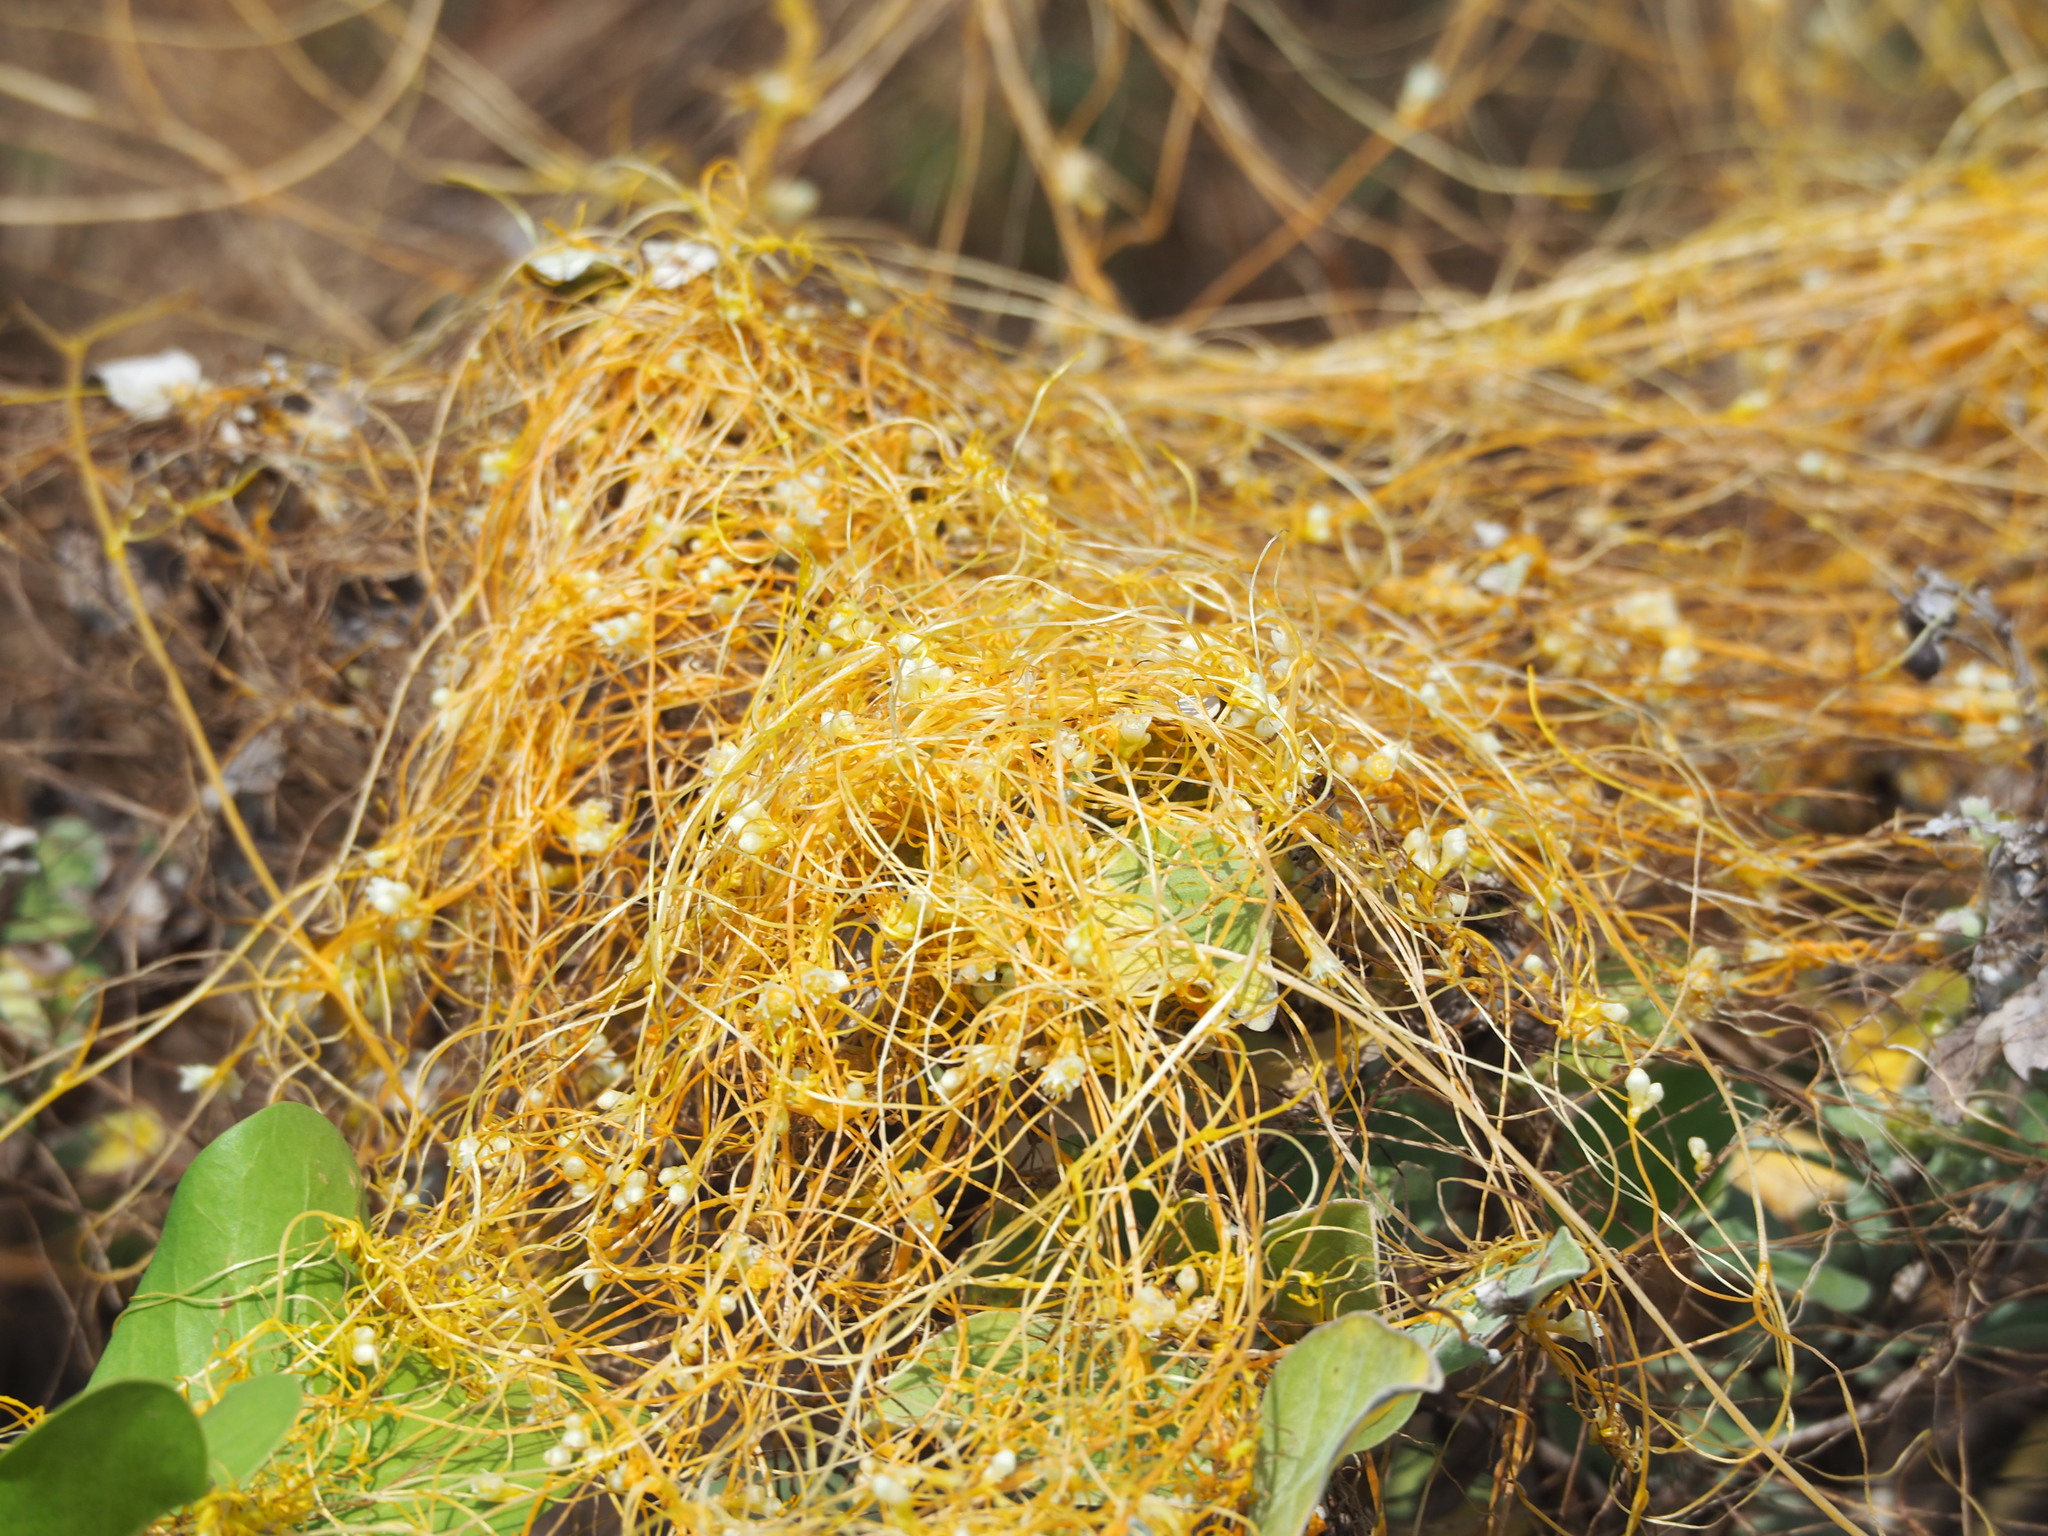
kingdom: Plantae
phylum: Tracheophyta
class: Magnoliopsida
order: Solanales
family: Convolvulaceae
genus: Cuscuta
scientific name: Cuscuta campestris
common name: Yellow dodder
